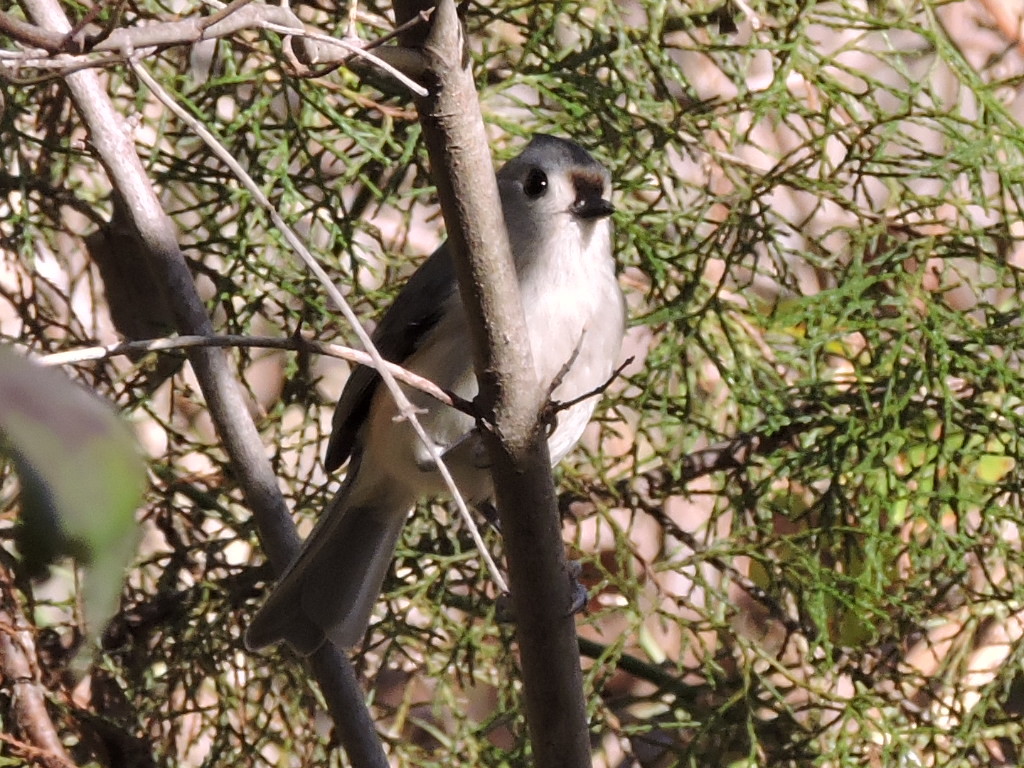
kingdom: Animalia
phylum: Chordata
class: Aves
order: Passeriformes
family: Paridae
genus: Baeolophus
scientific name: Baeolophus bicolor
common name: Tufted titmouse
